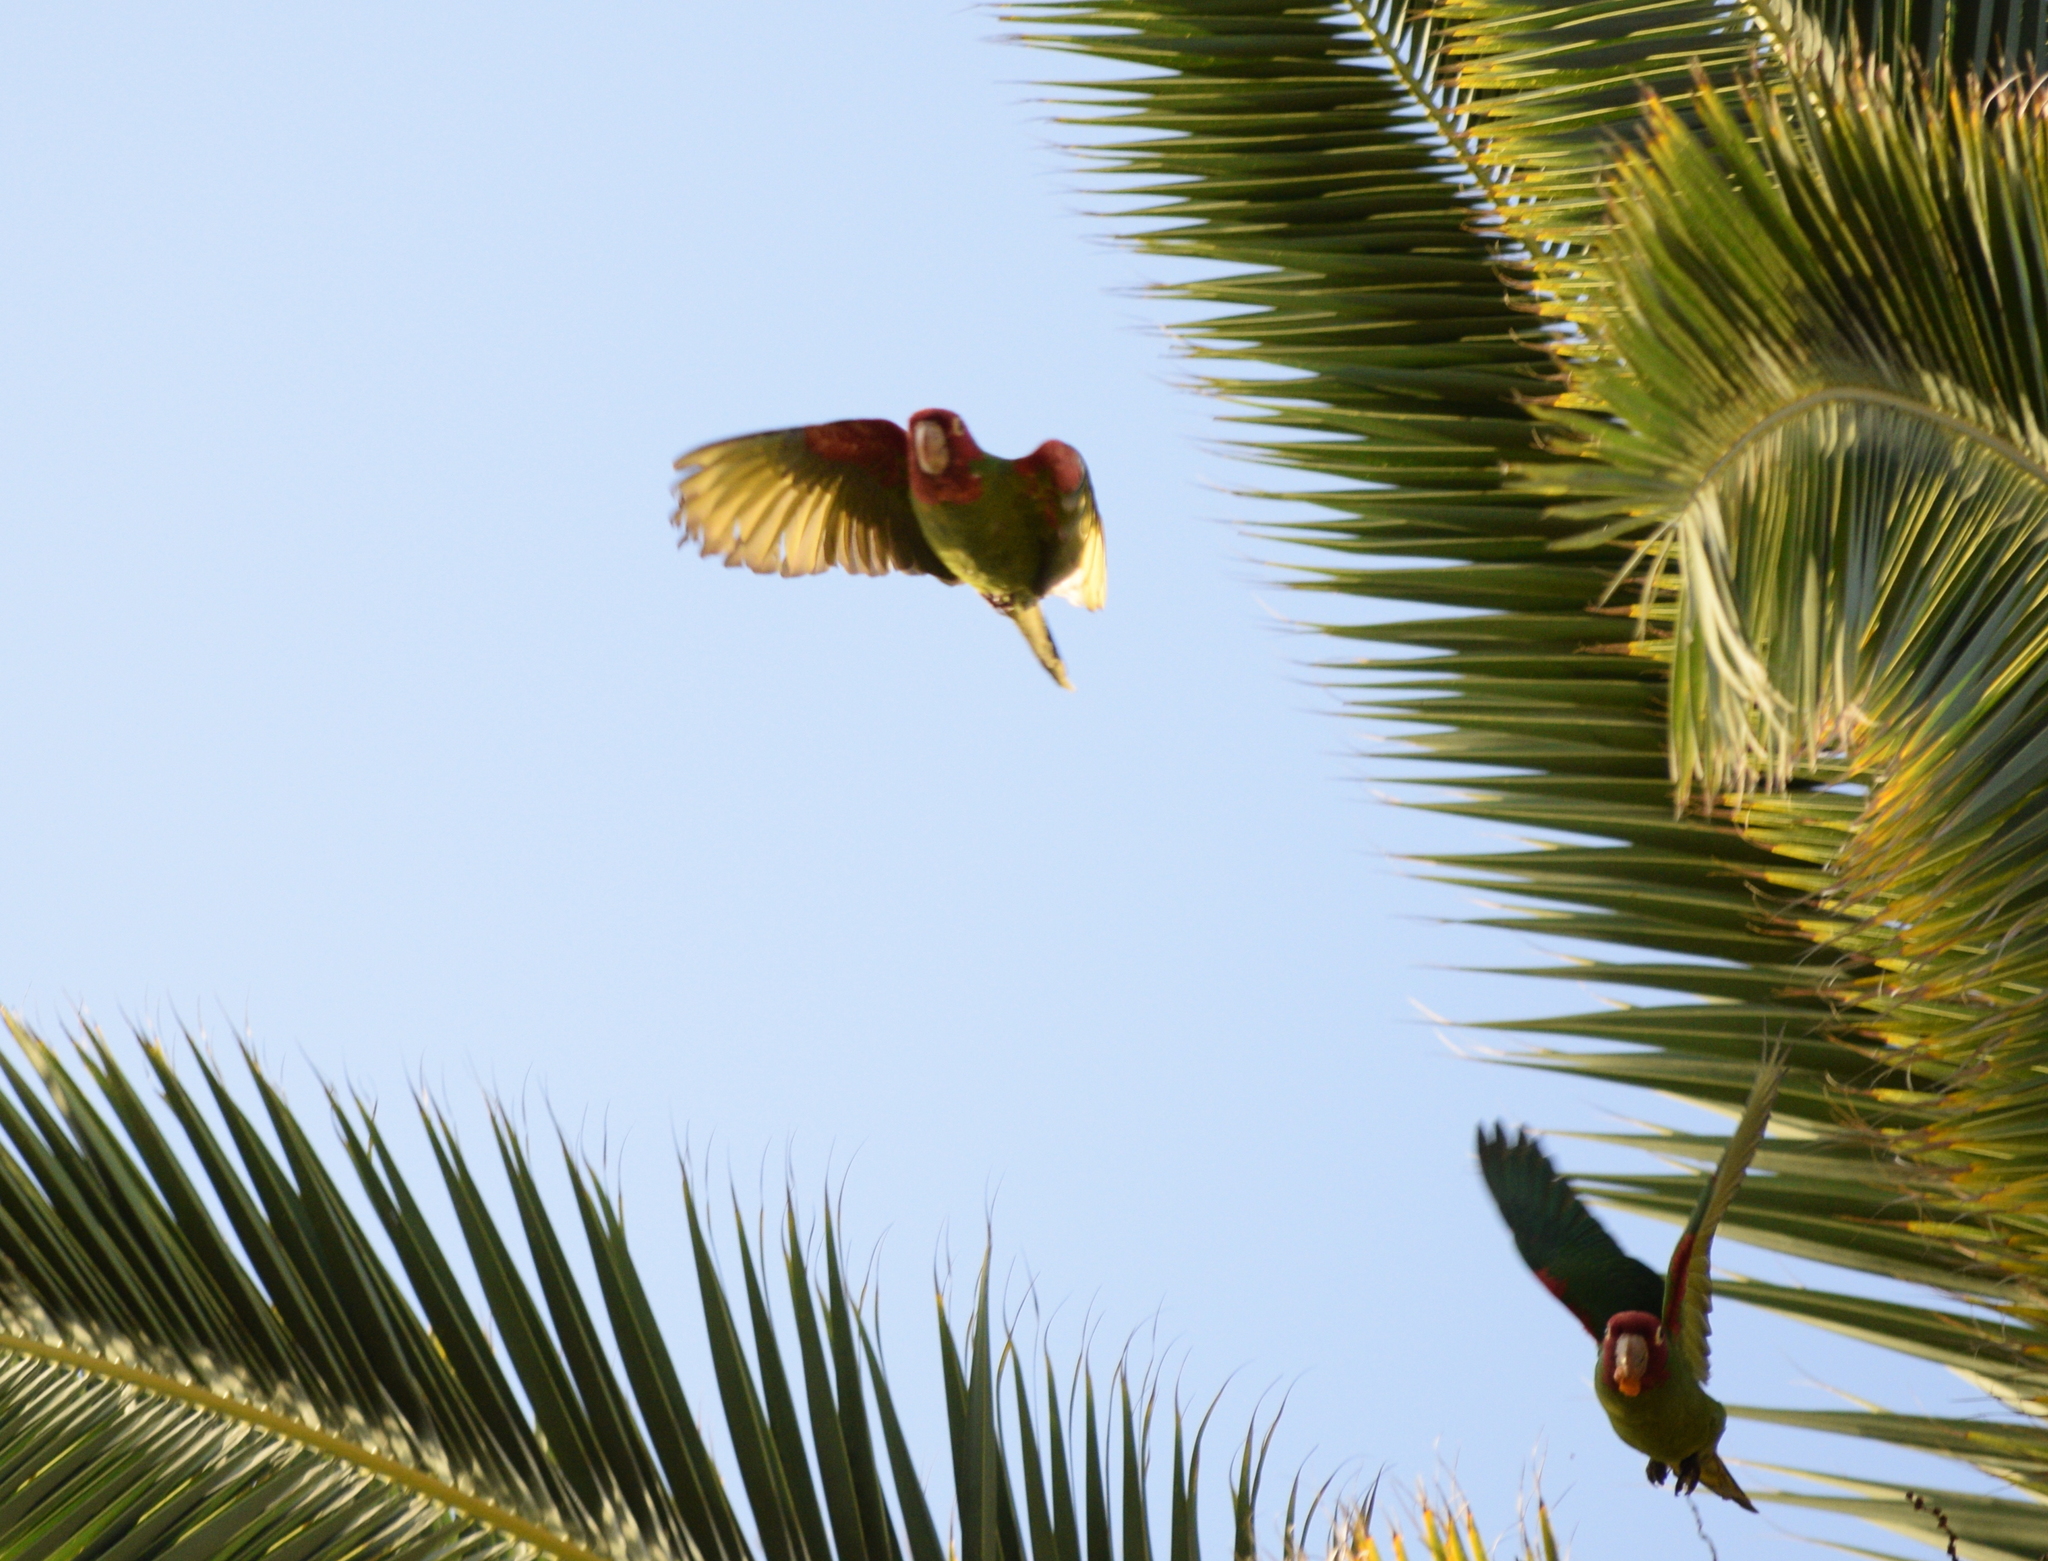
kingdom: Animalia
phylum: Chordata
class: Aves
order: Psittaciformes
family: Psittacidae
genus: Aratinga
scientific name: Aratinga erythrogenys
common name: Red-masked parakeet
